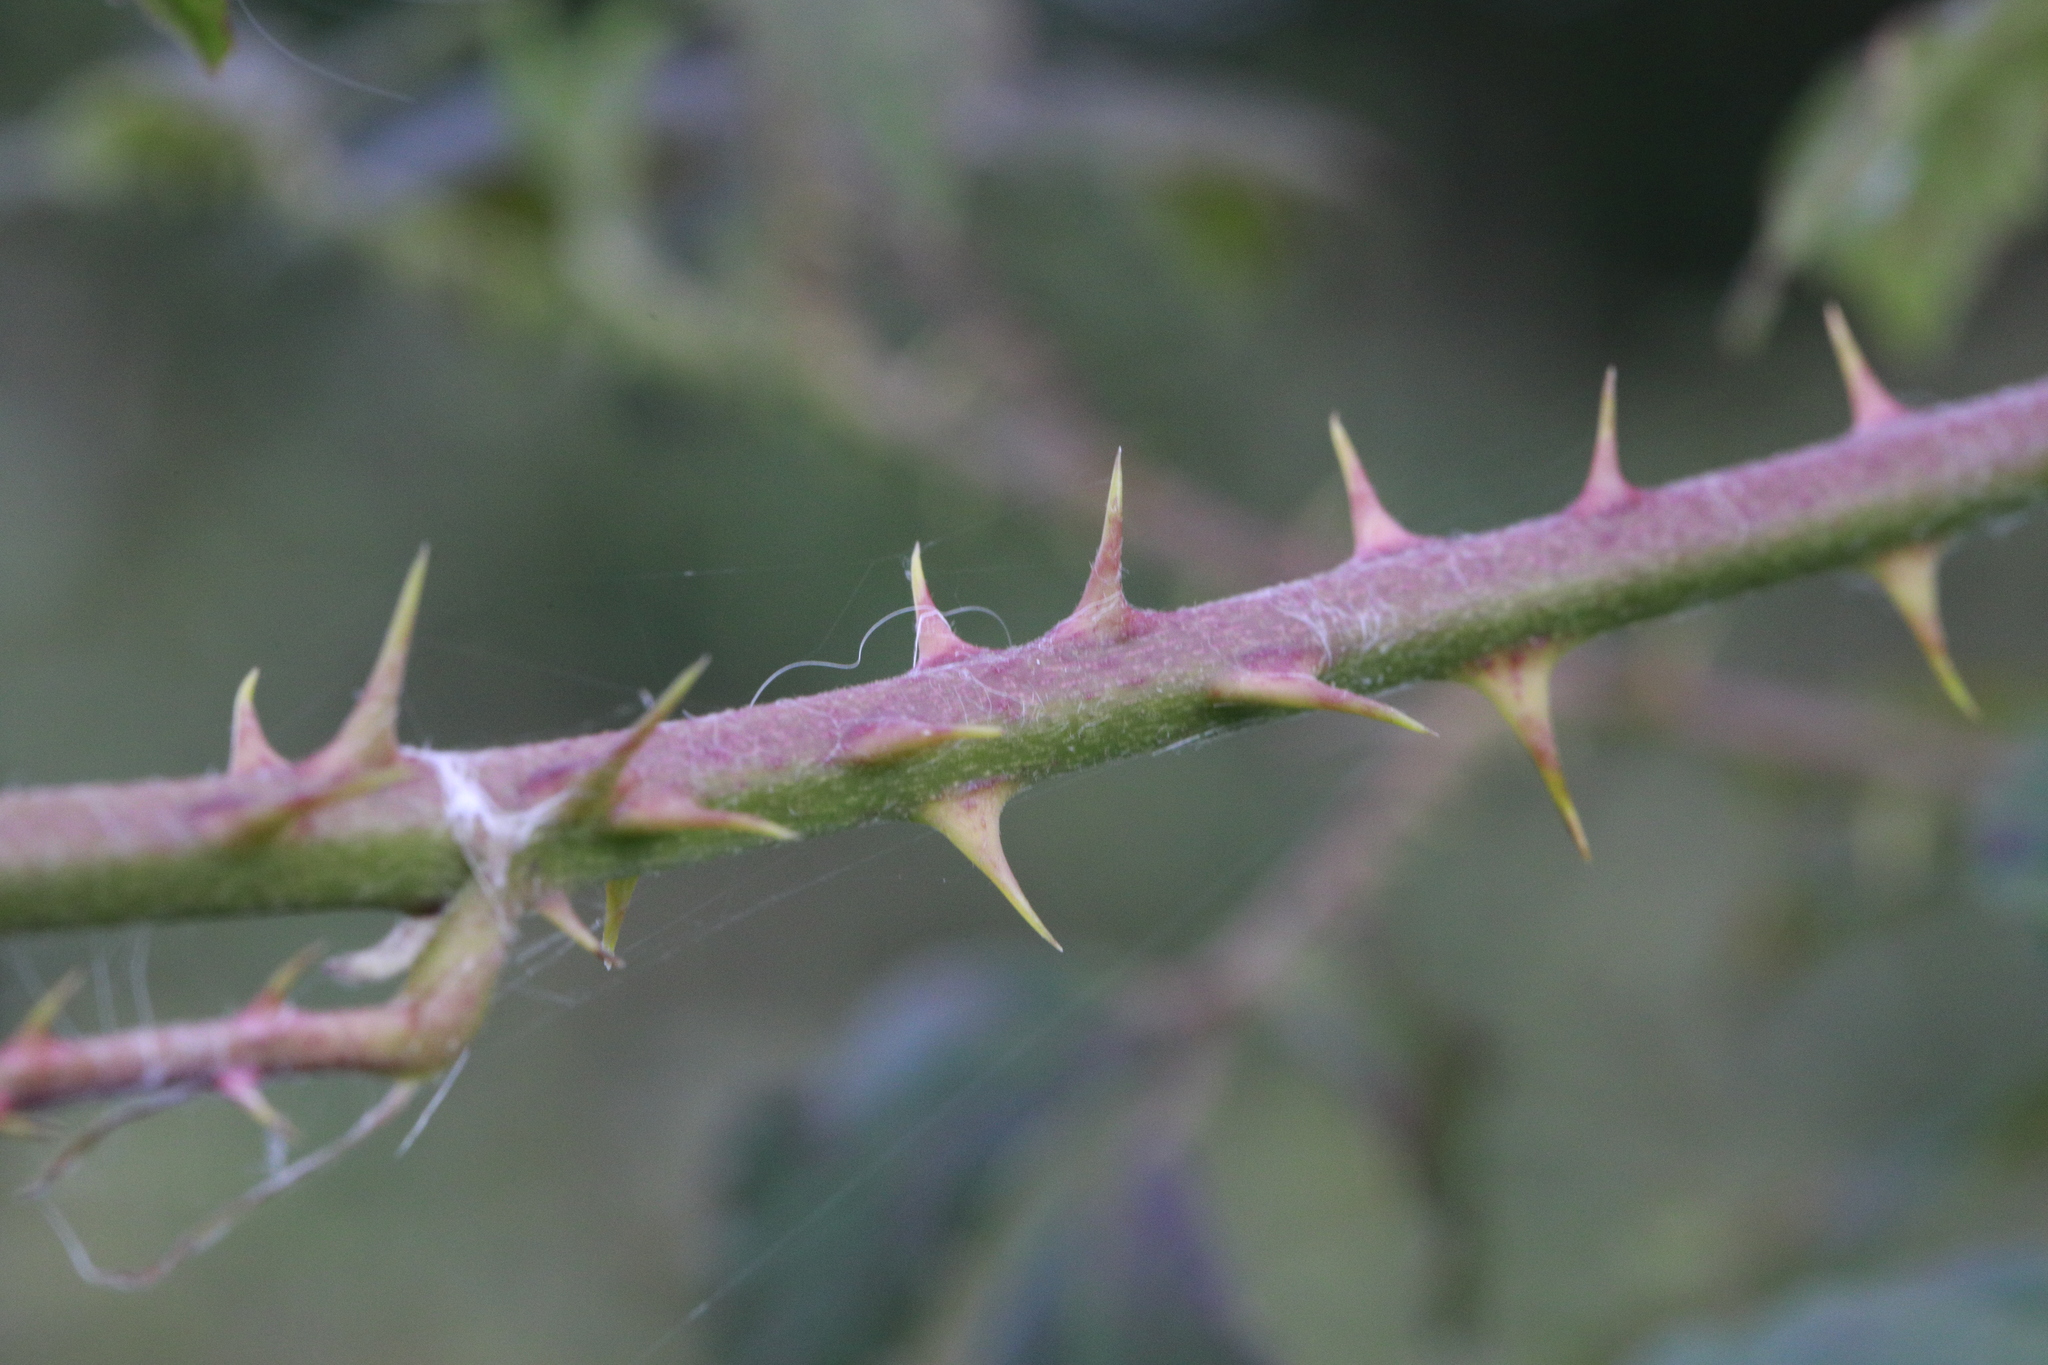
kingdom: Plantae
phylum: Tracheophyta
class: Magnoliopsida
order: Rosales
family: Rosaceae
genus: Rubus
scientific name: Rubus lindleyanus
